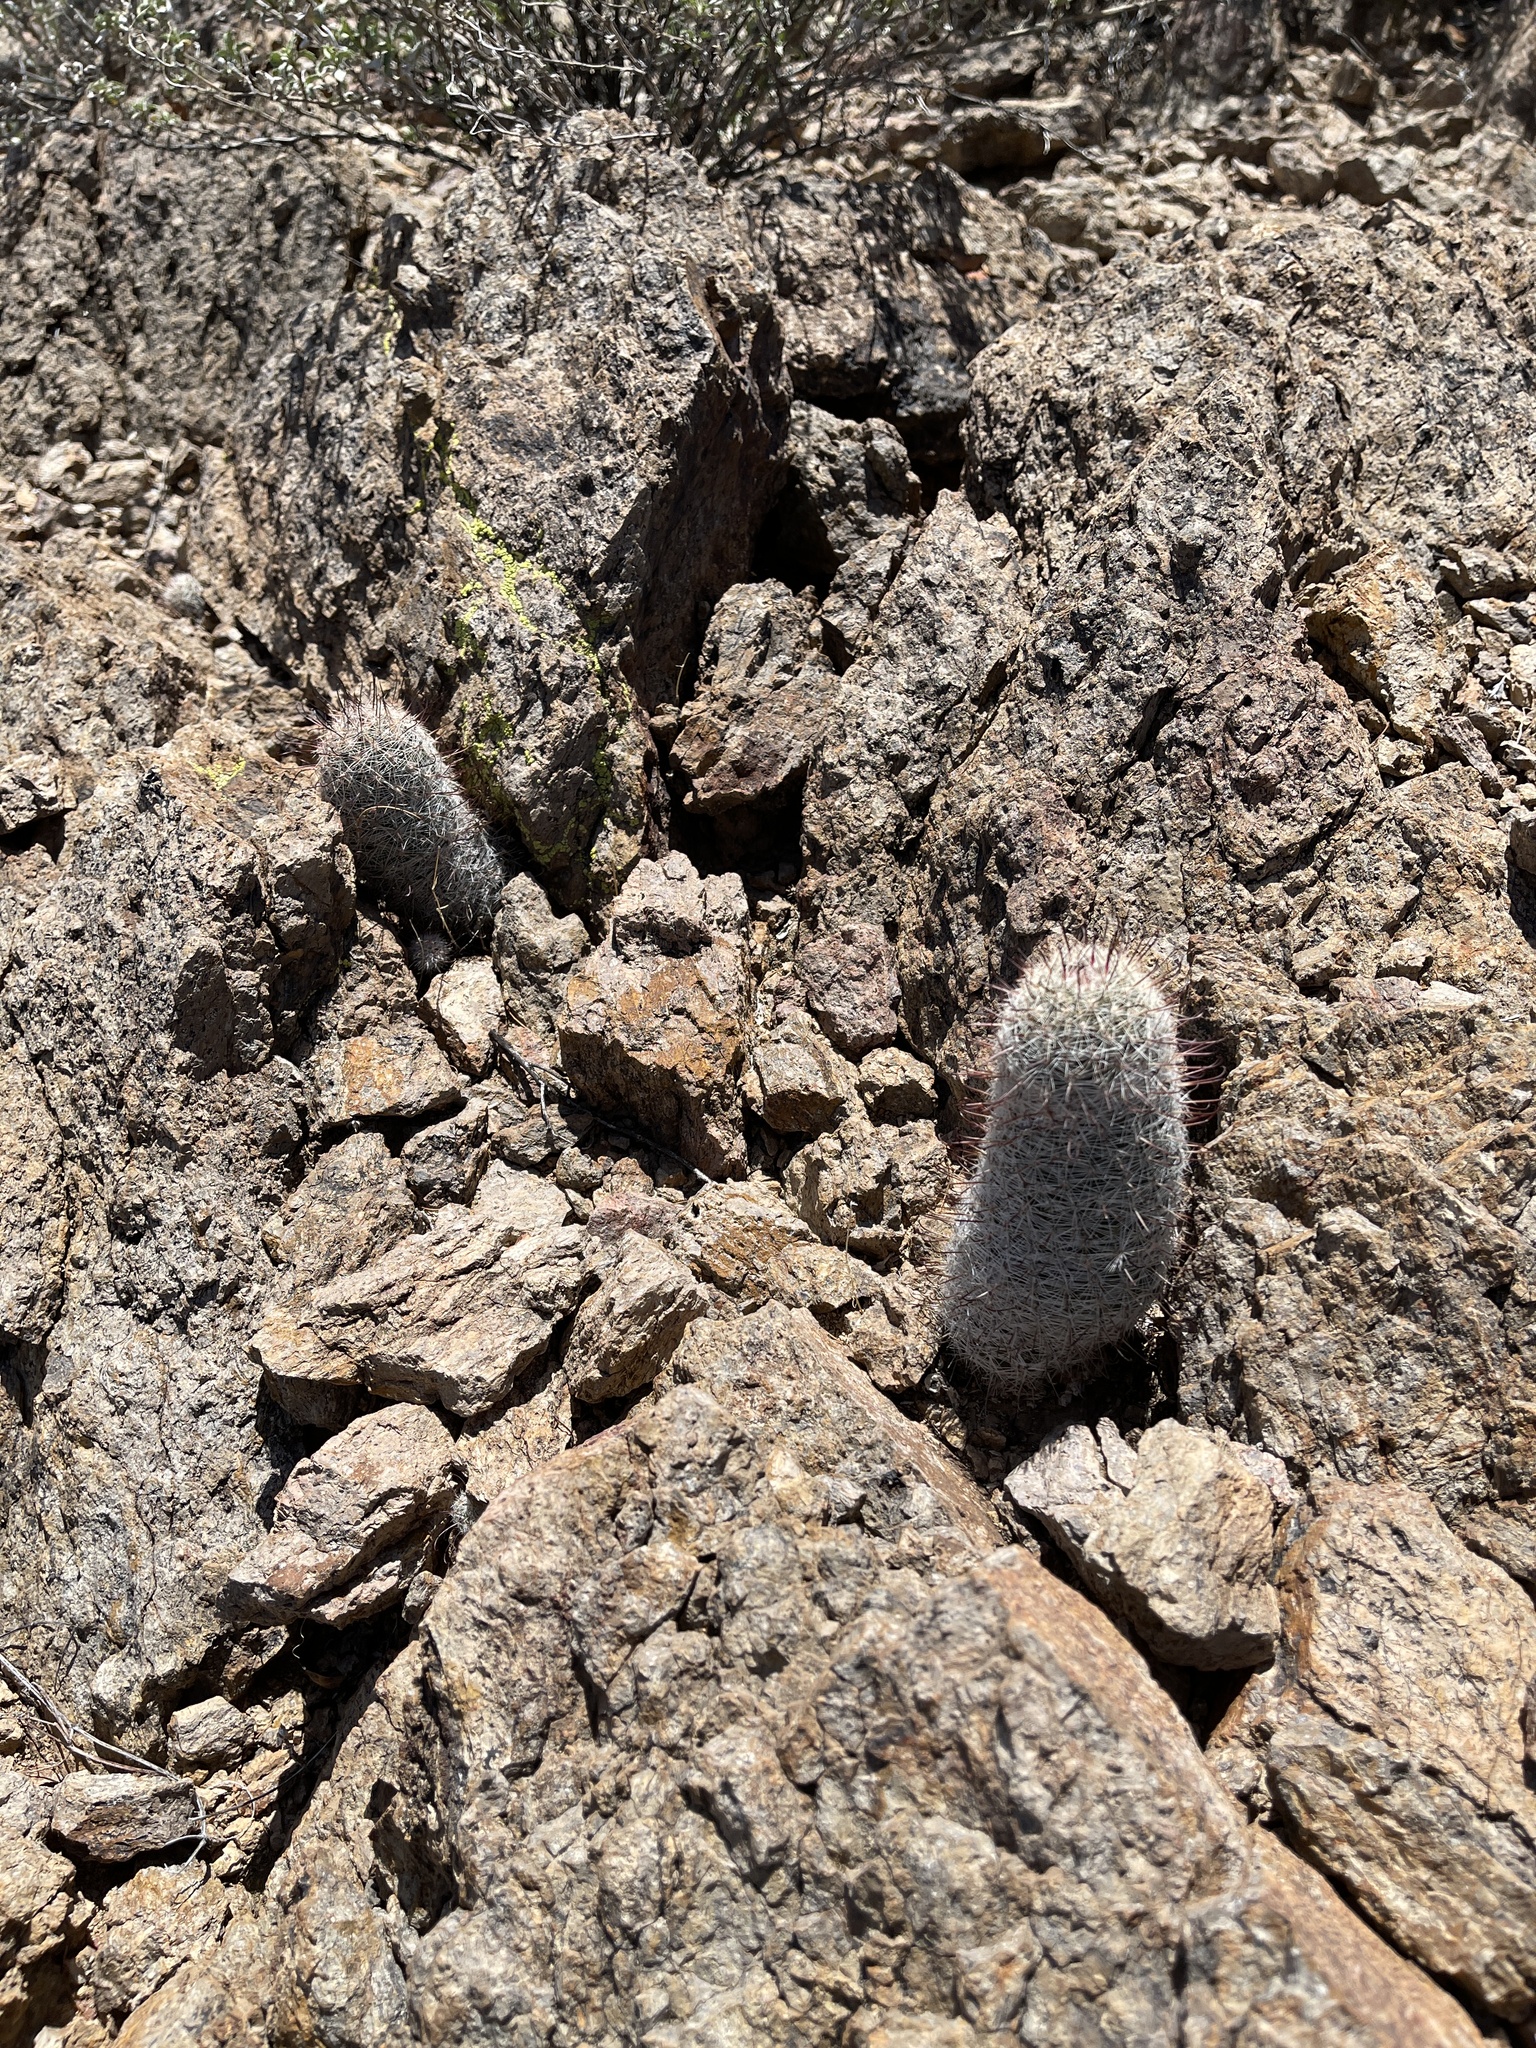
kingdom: Plantae
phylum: Tracheophyta
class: Magnoliopsida
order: Caryophyllales
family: Cactaceae
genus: Cochemiea
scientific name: Cochemiea grahamii
